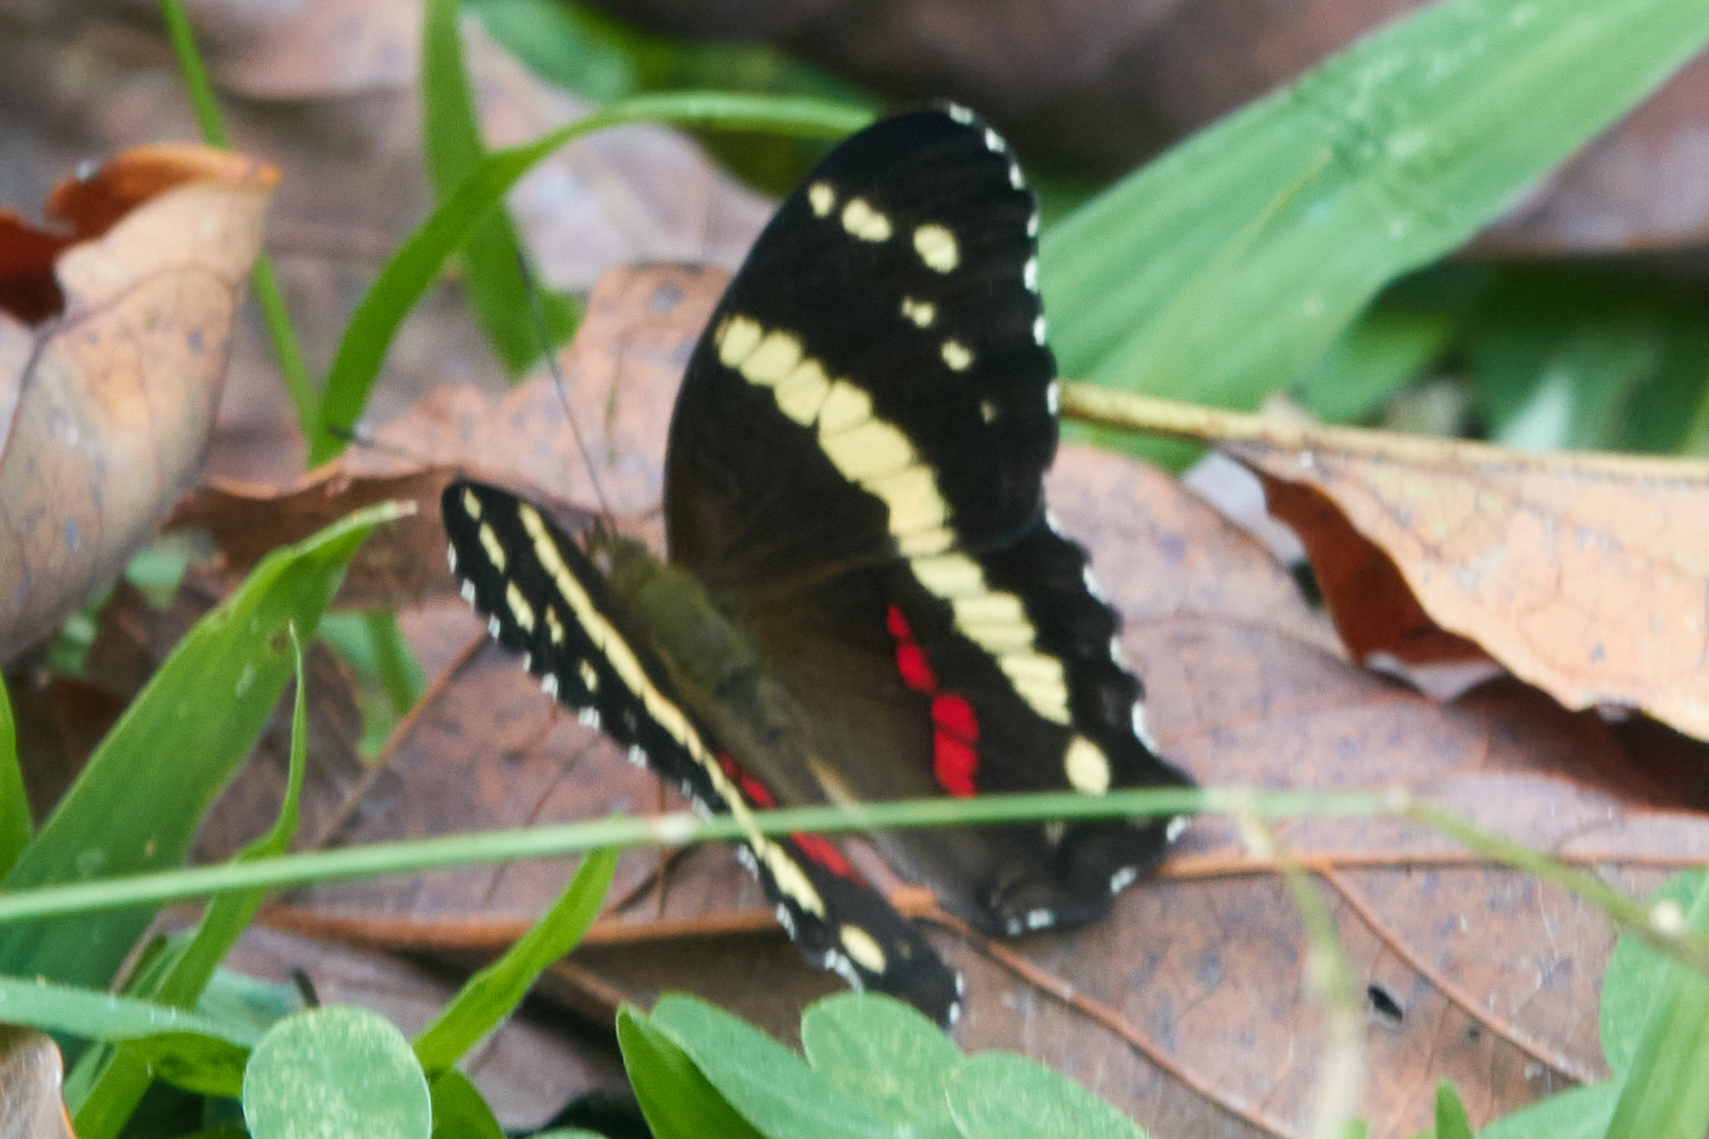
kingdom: Animalia
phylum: Arthropoda
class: Insecta
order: Lepidoptera
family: Nymphalidae
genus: Anartia
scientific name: Anartia fatima
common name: Banded peacock
